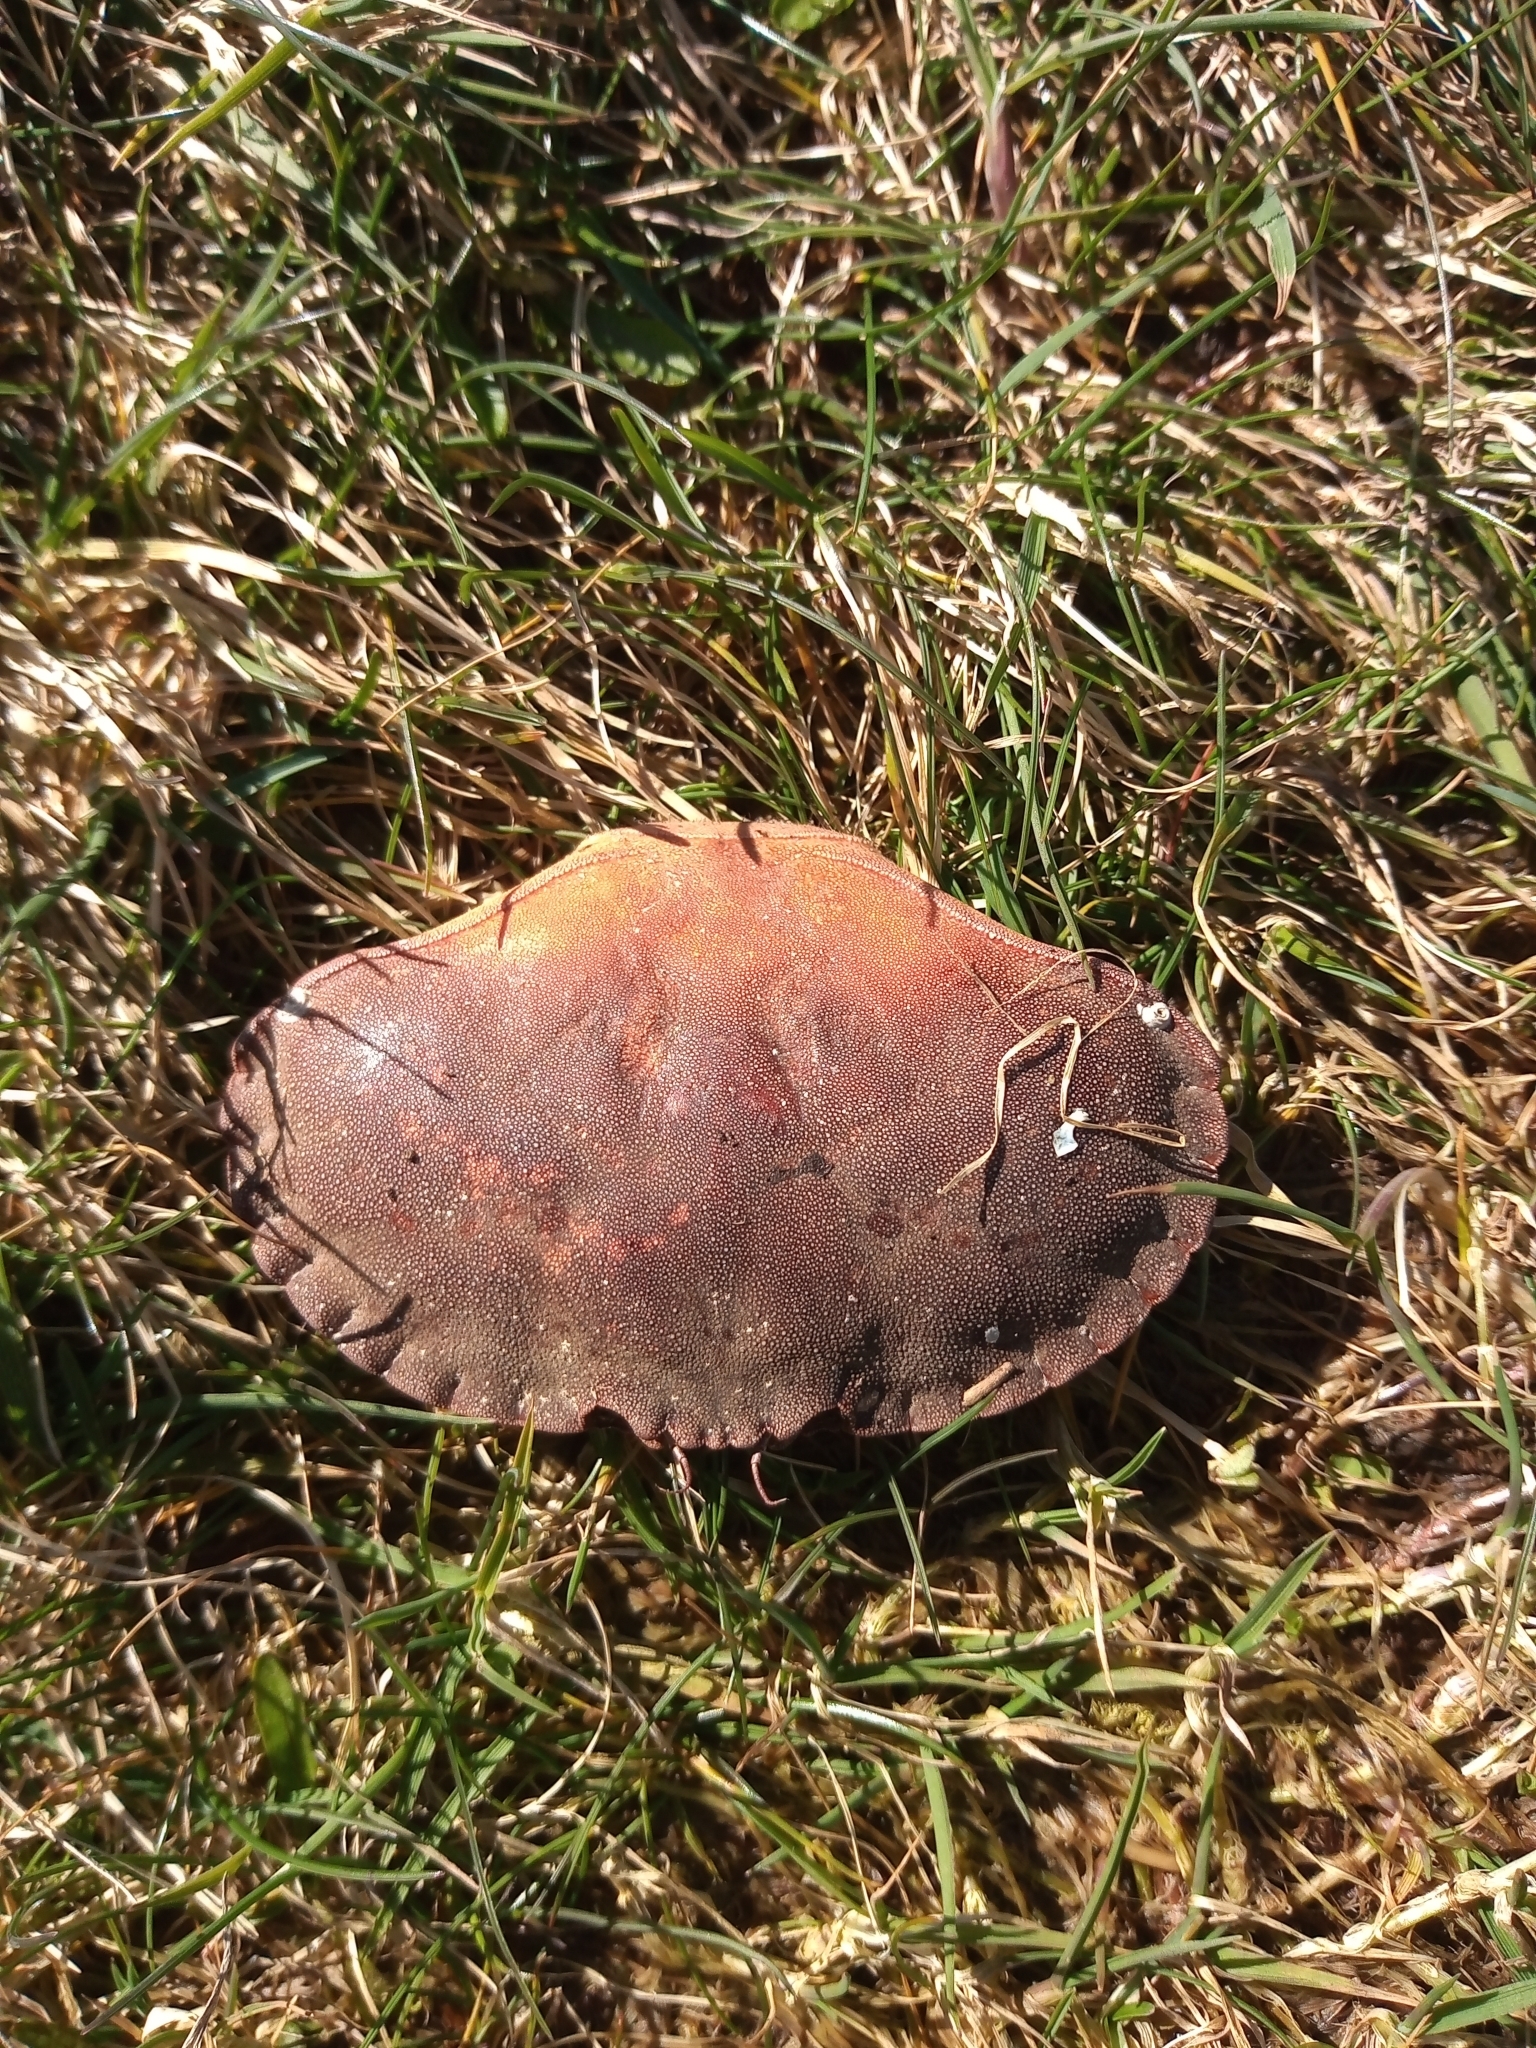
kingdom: Animalia
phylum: Arthropoda
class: Malacostraca
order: Decapoda
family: Cancridae
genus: Cancer
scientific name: Cancer pagurus
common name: Edible crab
